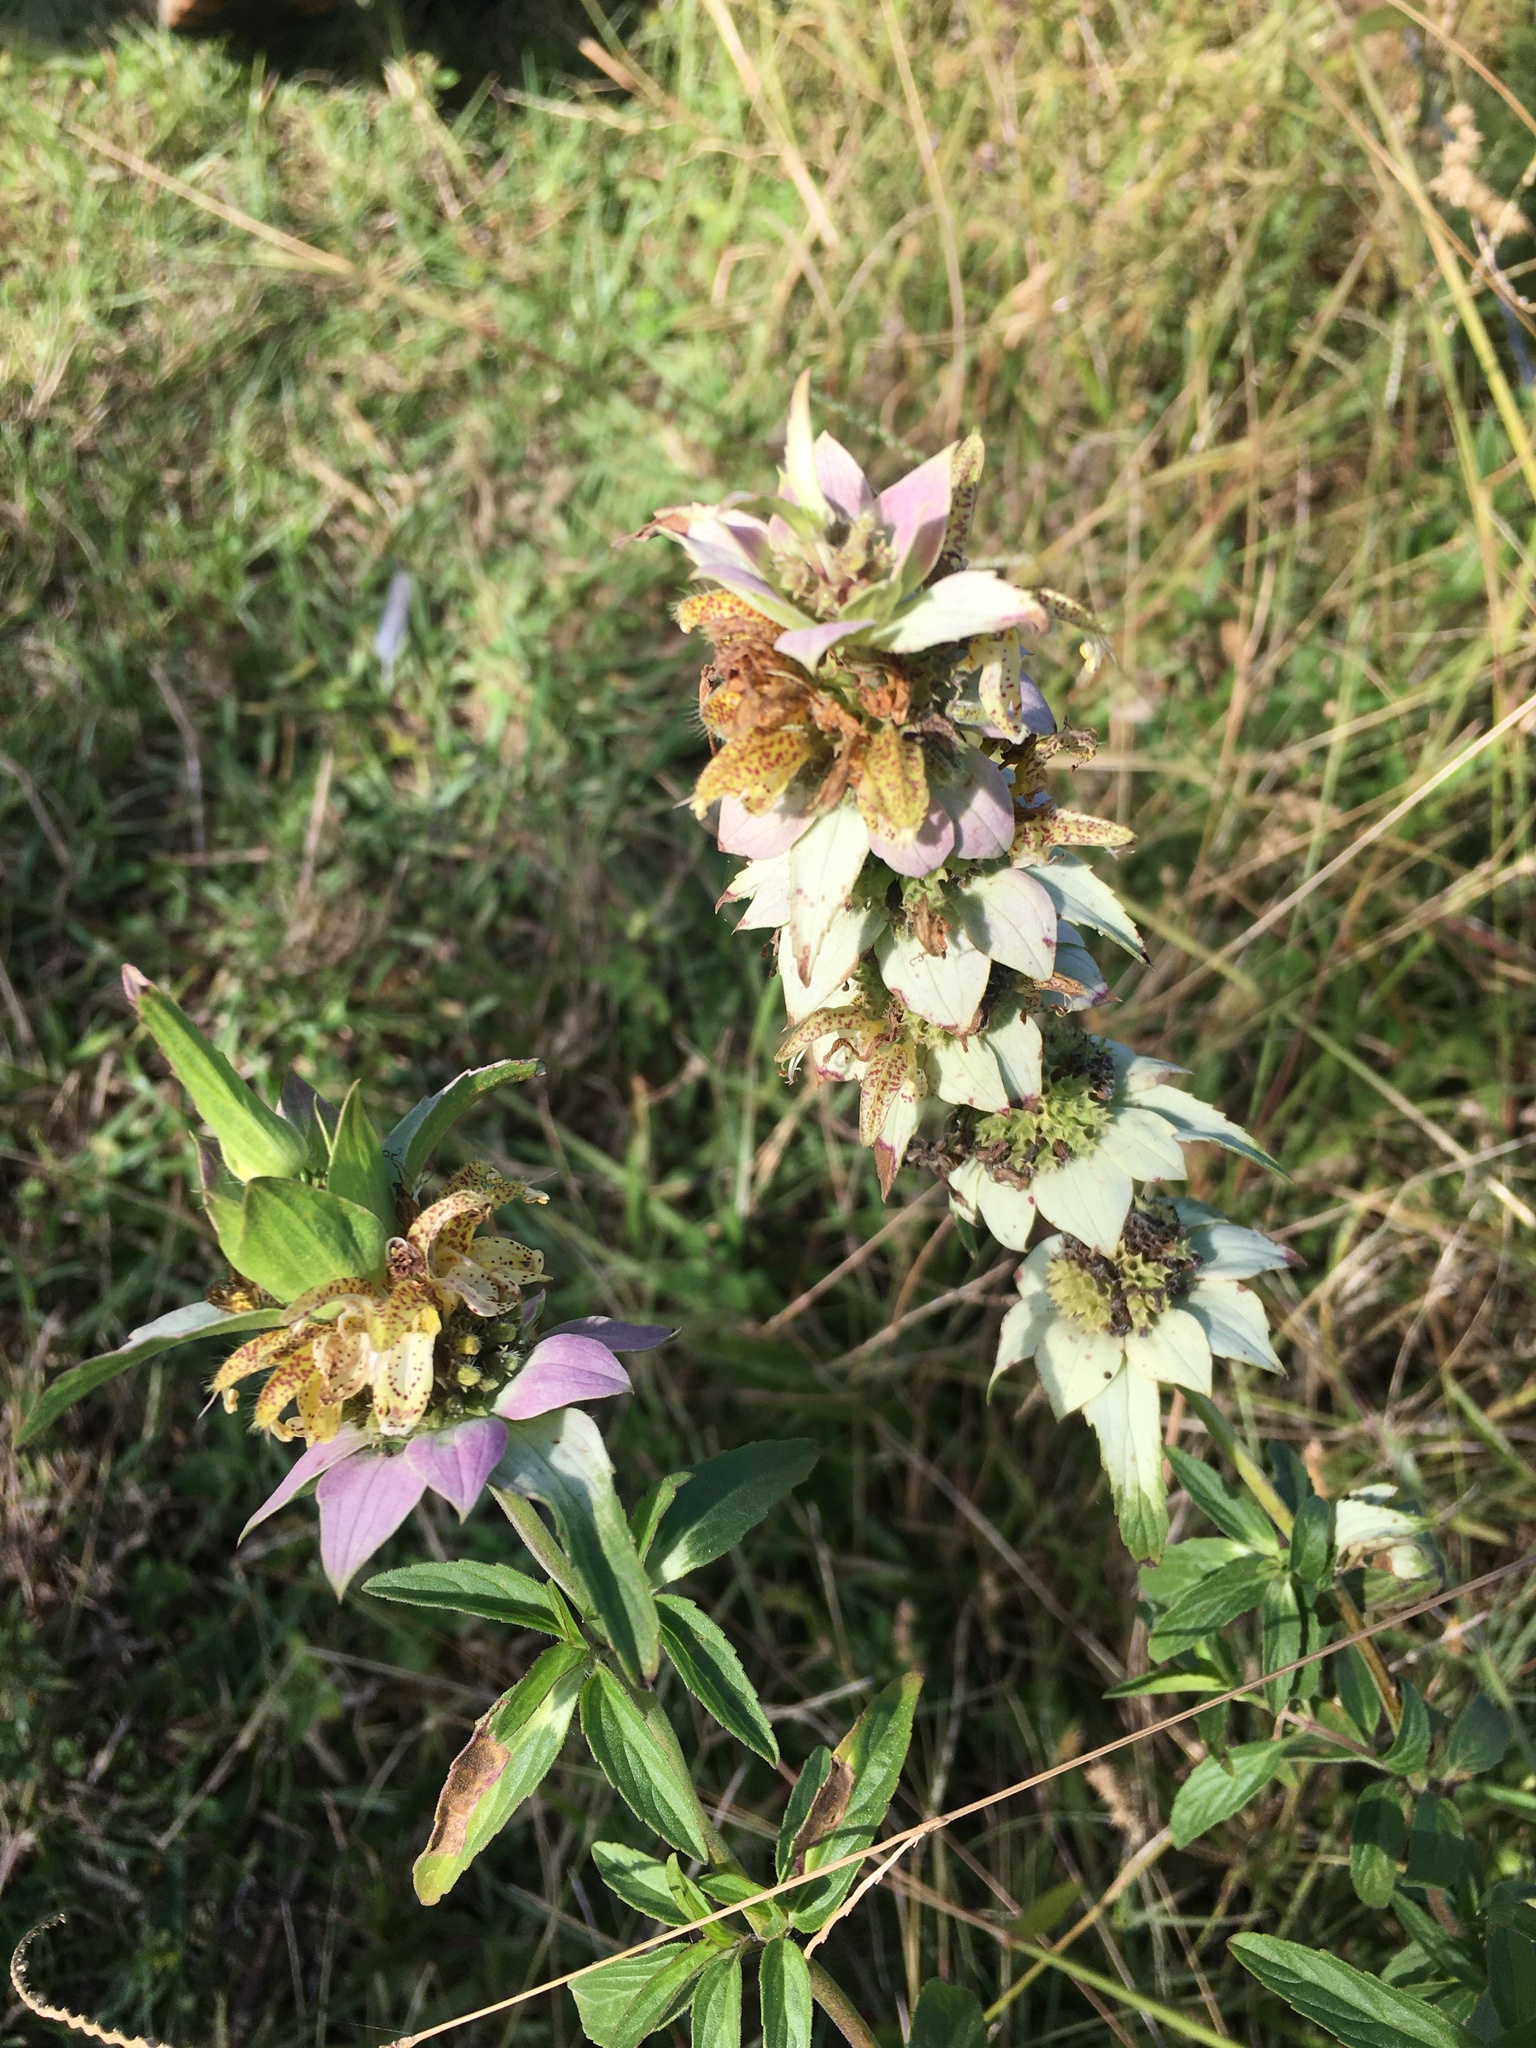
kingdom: Plantae
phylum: Tracheophyta
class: Magnoliopsida
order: Lamiales
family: Lamiaceae
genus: Monarda
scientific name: Monarda punctata
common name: Dotted monarda
